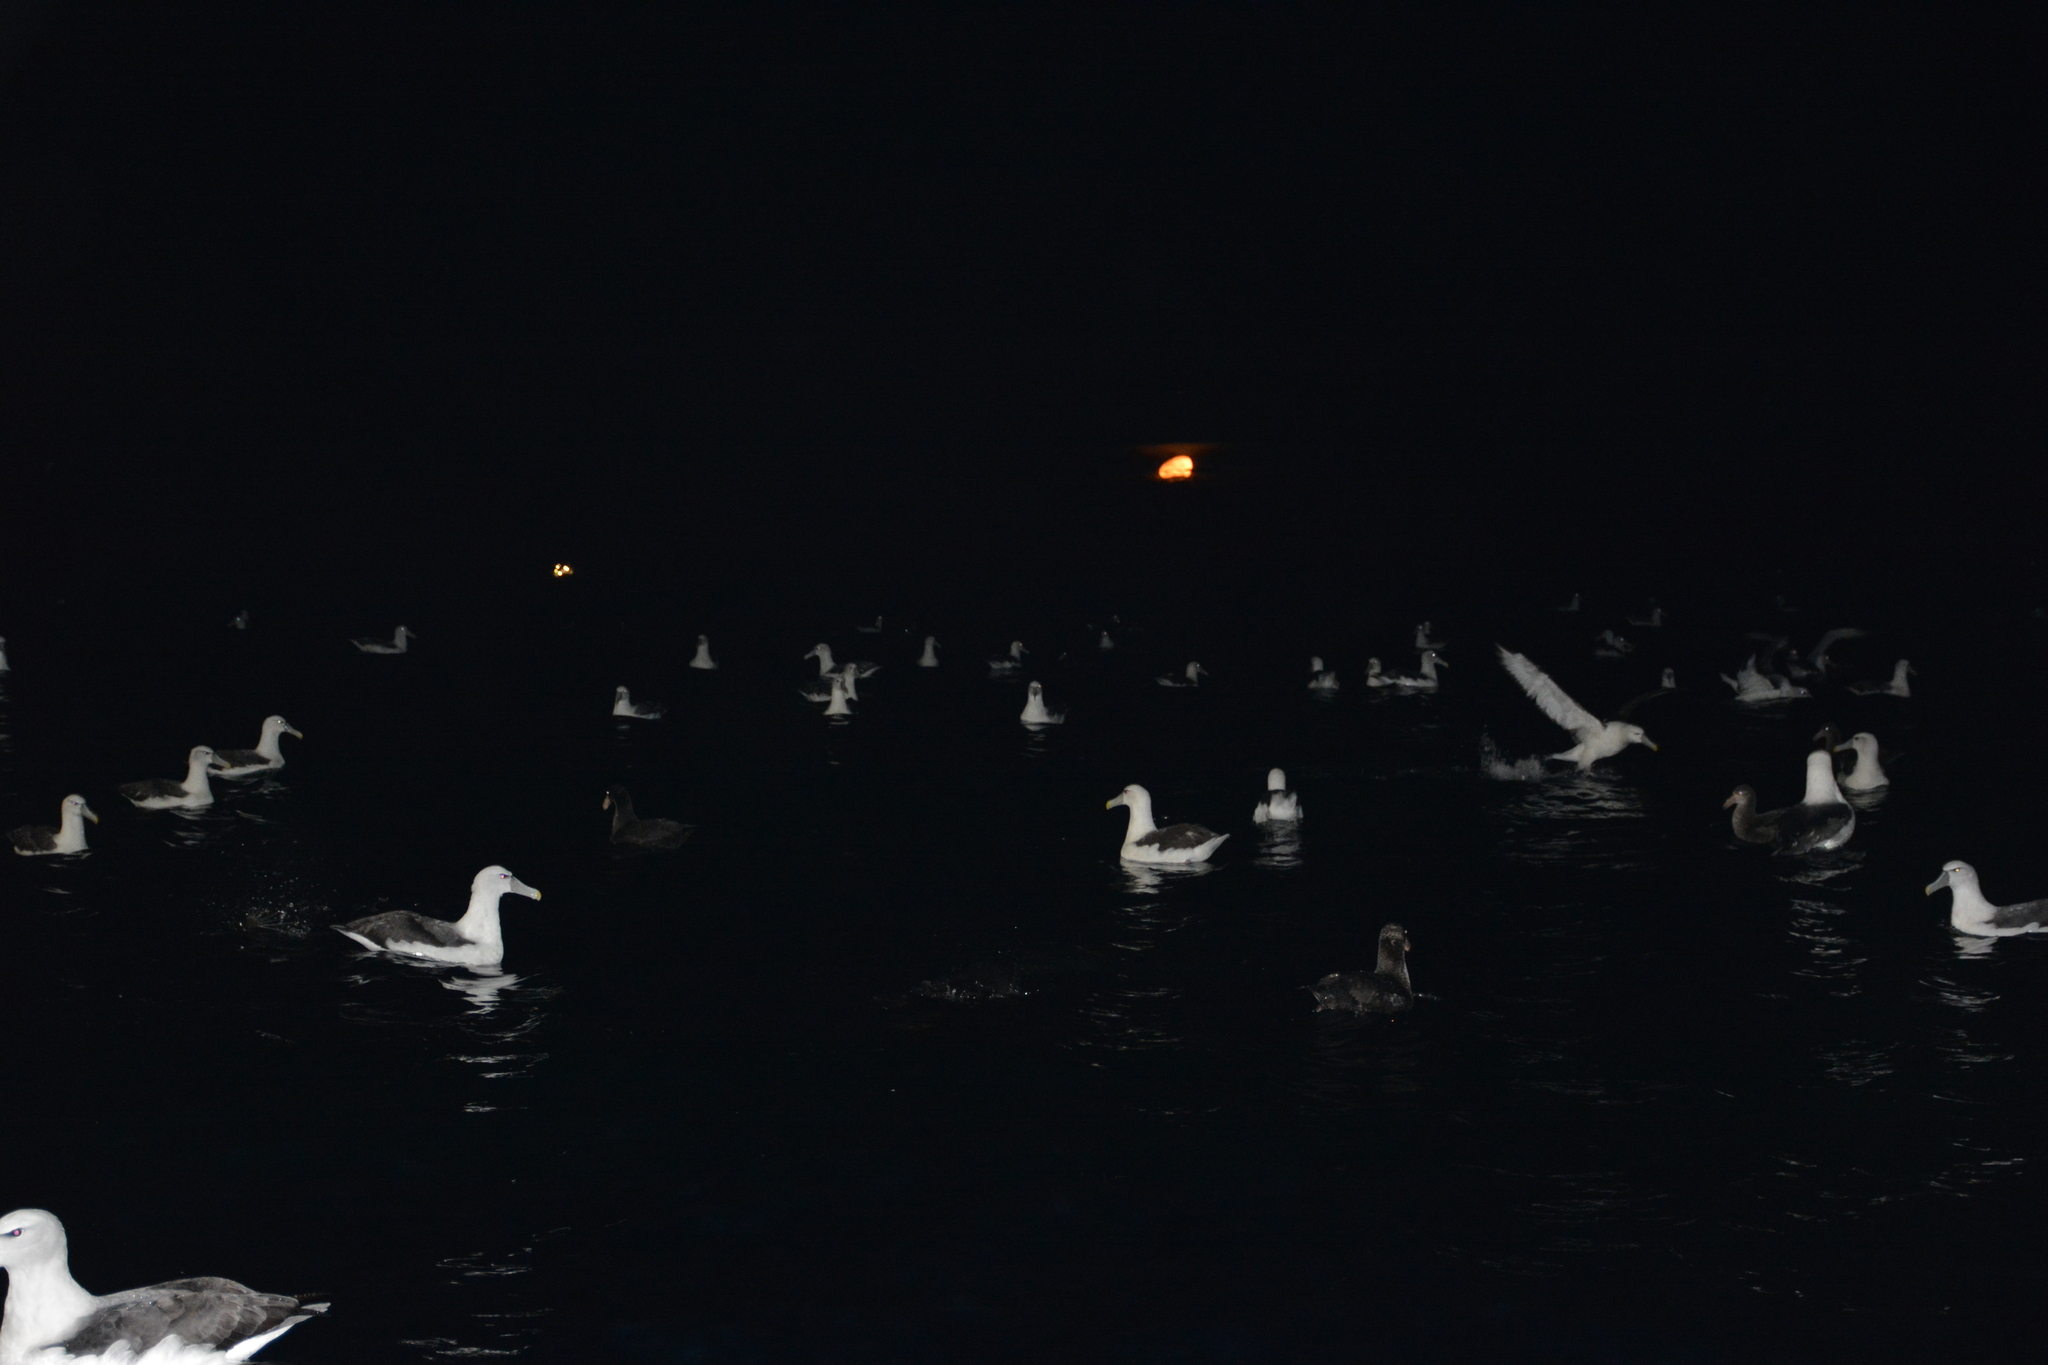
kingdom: Animalia
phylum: Chordata
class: Aves
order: Procellariiformes
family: Diomedeidae
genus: Thalassarche
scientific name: Thalassarche cauta
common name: Shy albatross
